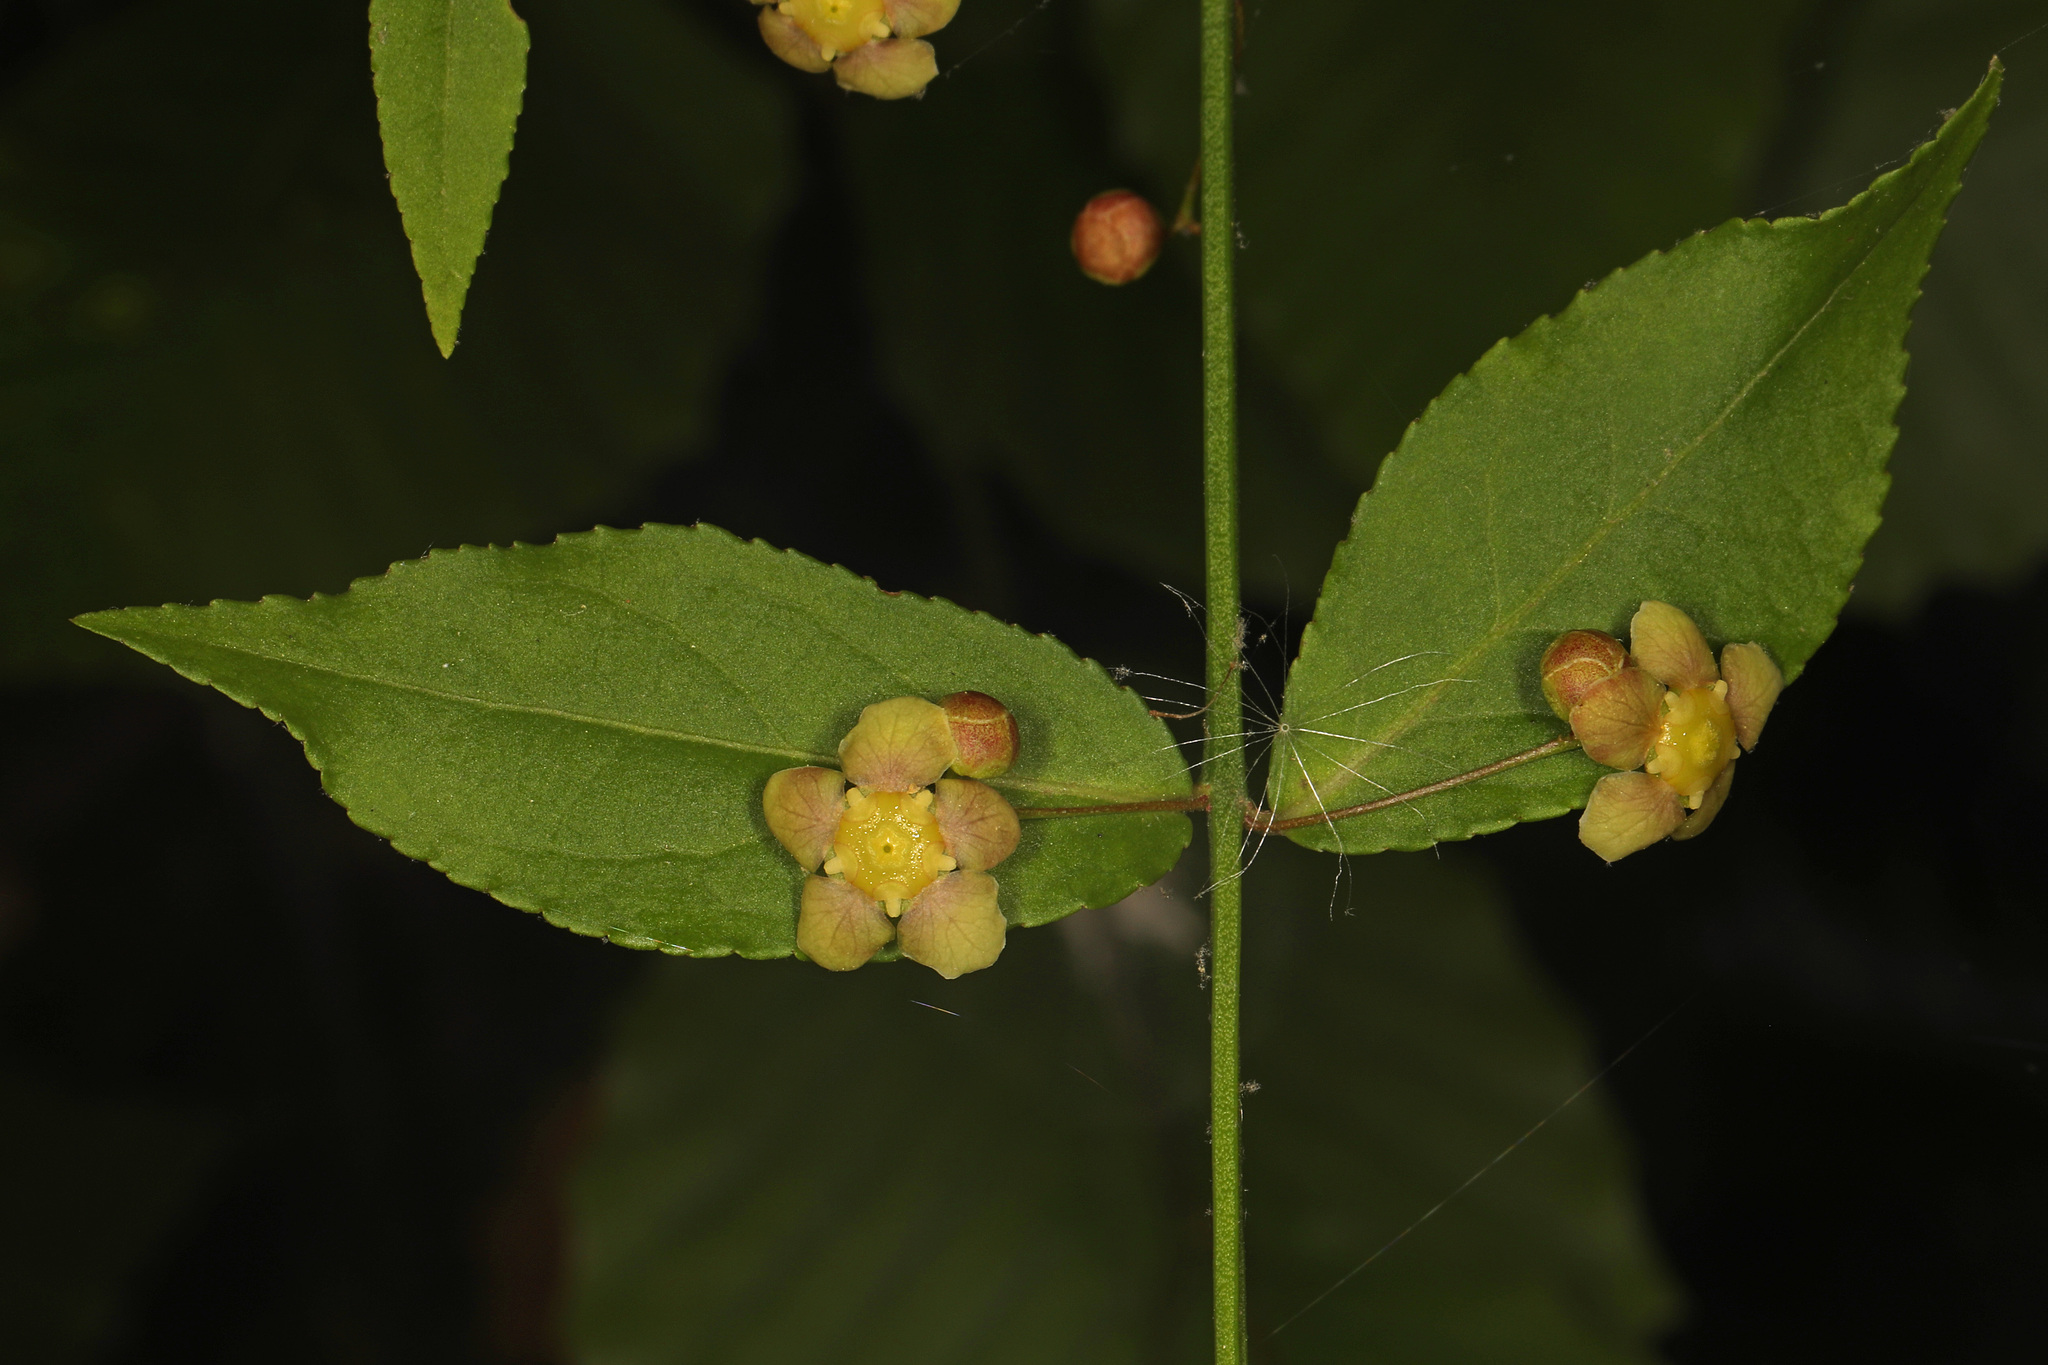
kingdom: Plantae
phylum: Tracheophyta
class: Magnoliopsida
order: Celastrales
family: Celastraceae
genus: Euonymus
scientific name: Euonymus americanus
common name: Bursting-heart
